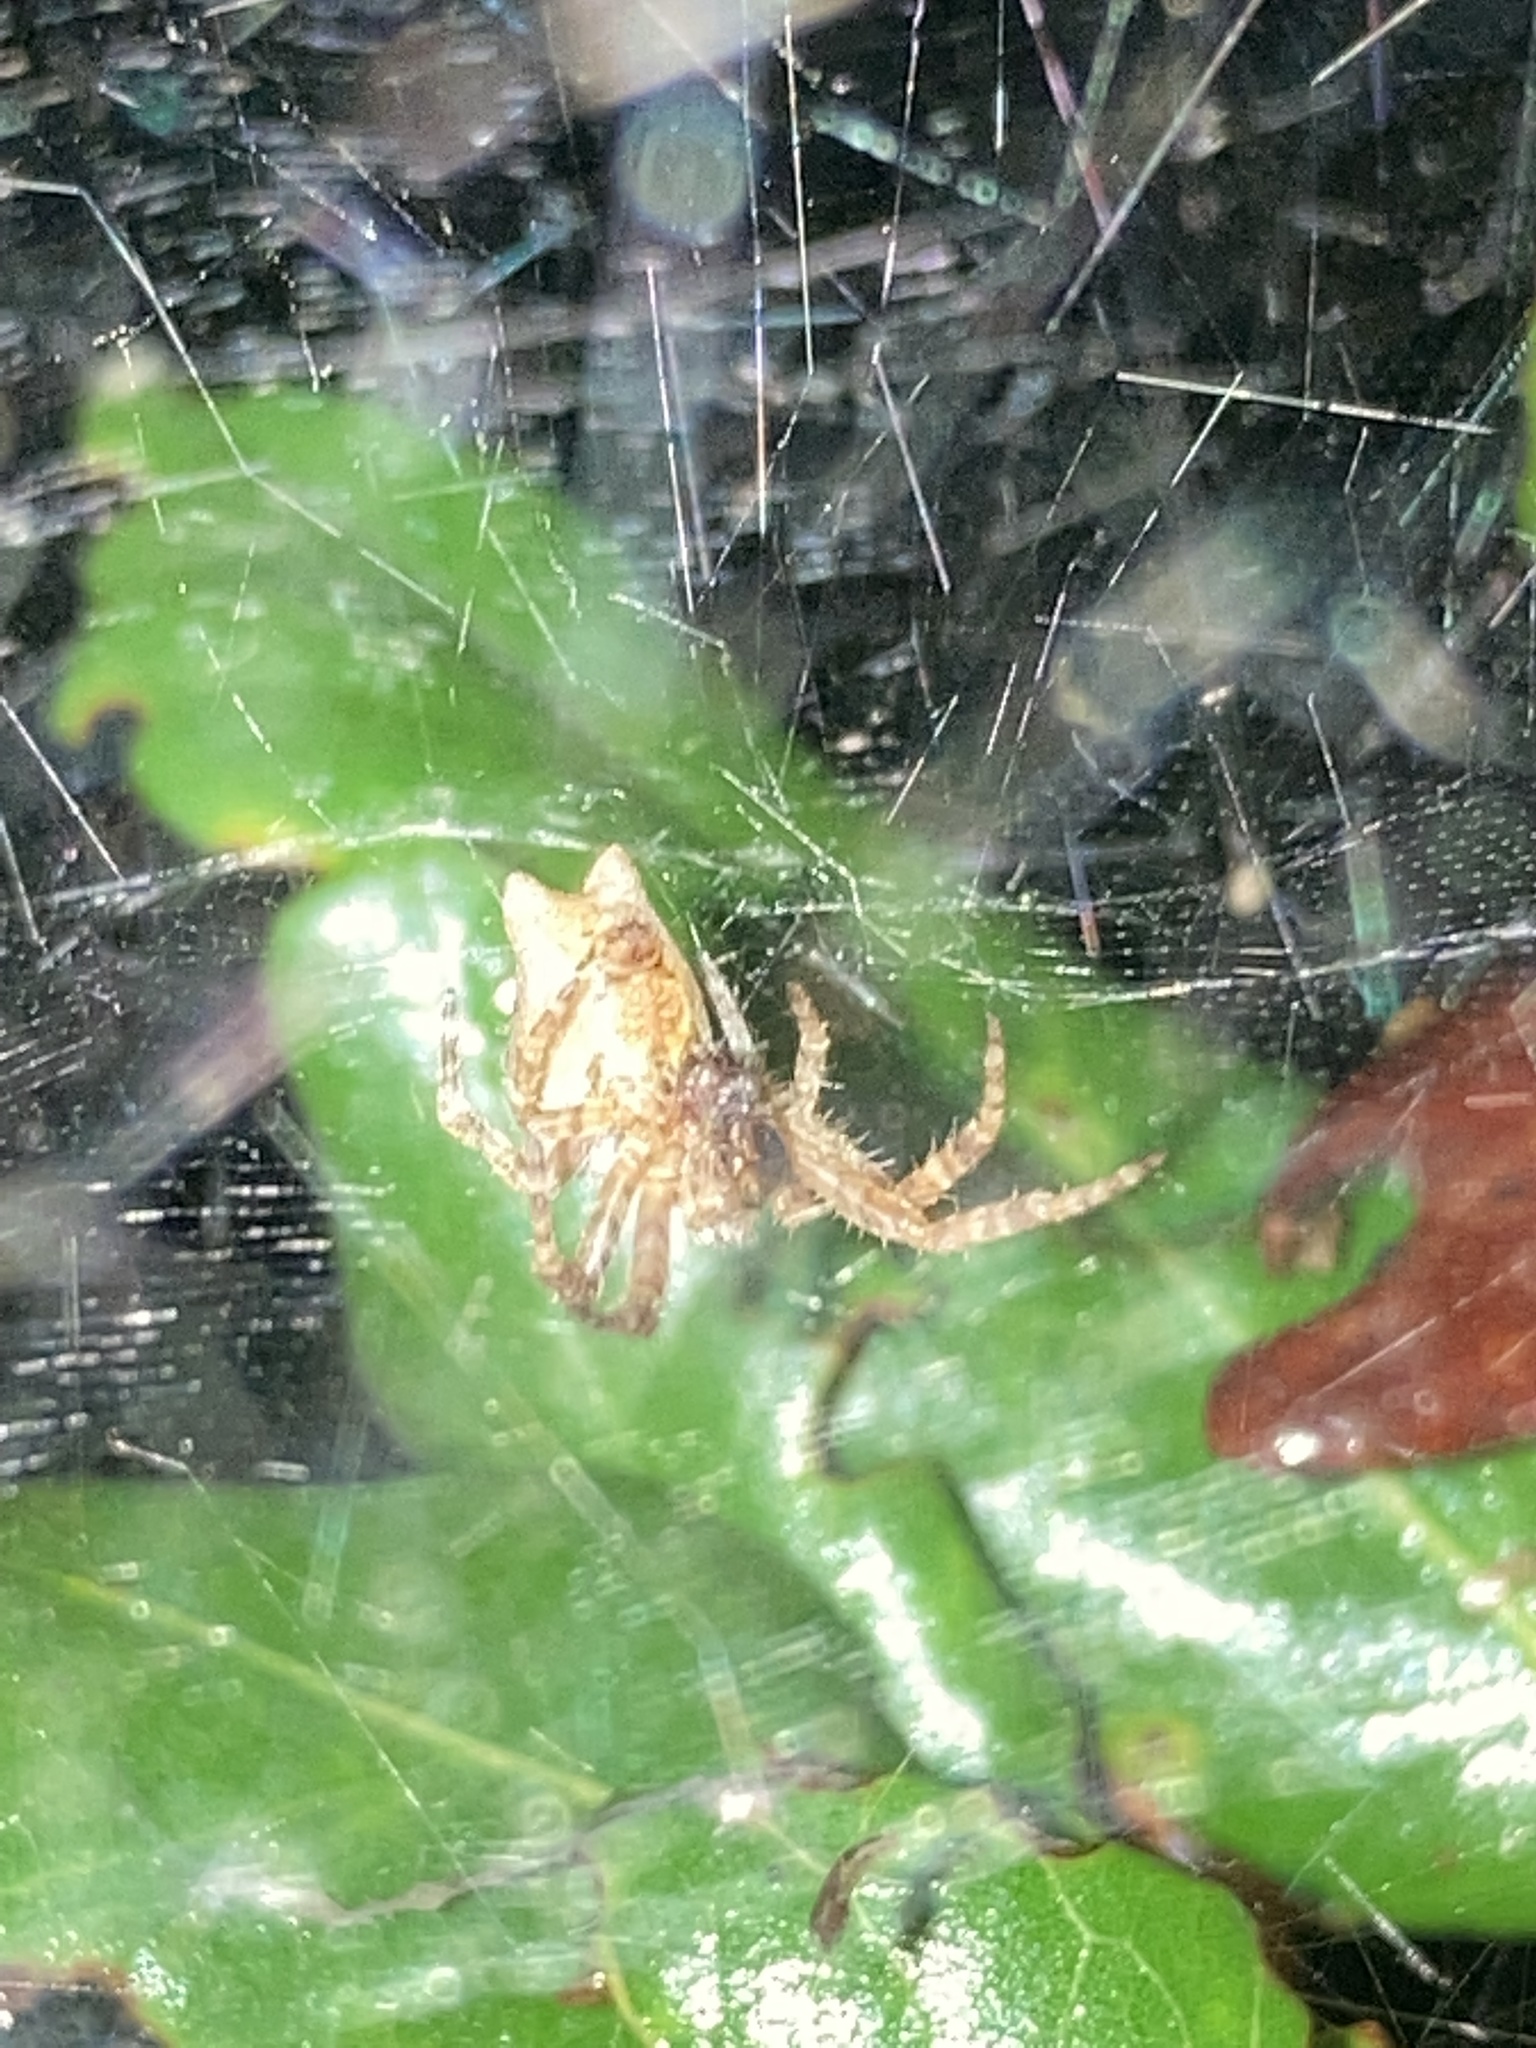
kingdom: Animalia
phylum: Arthropoda
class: Arachnida
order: Araneae
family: Araneidae
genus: Cyrtophora
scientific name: Cyrtophora citricola
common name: Orb weavers
